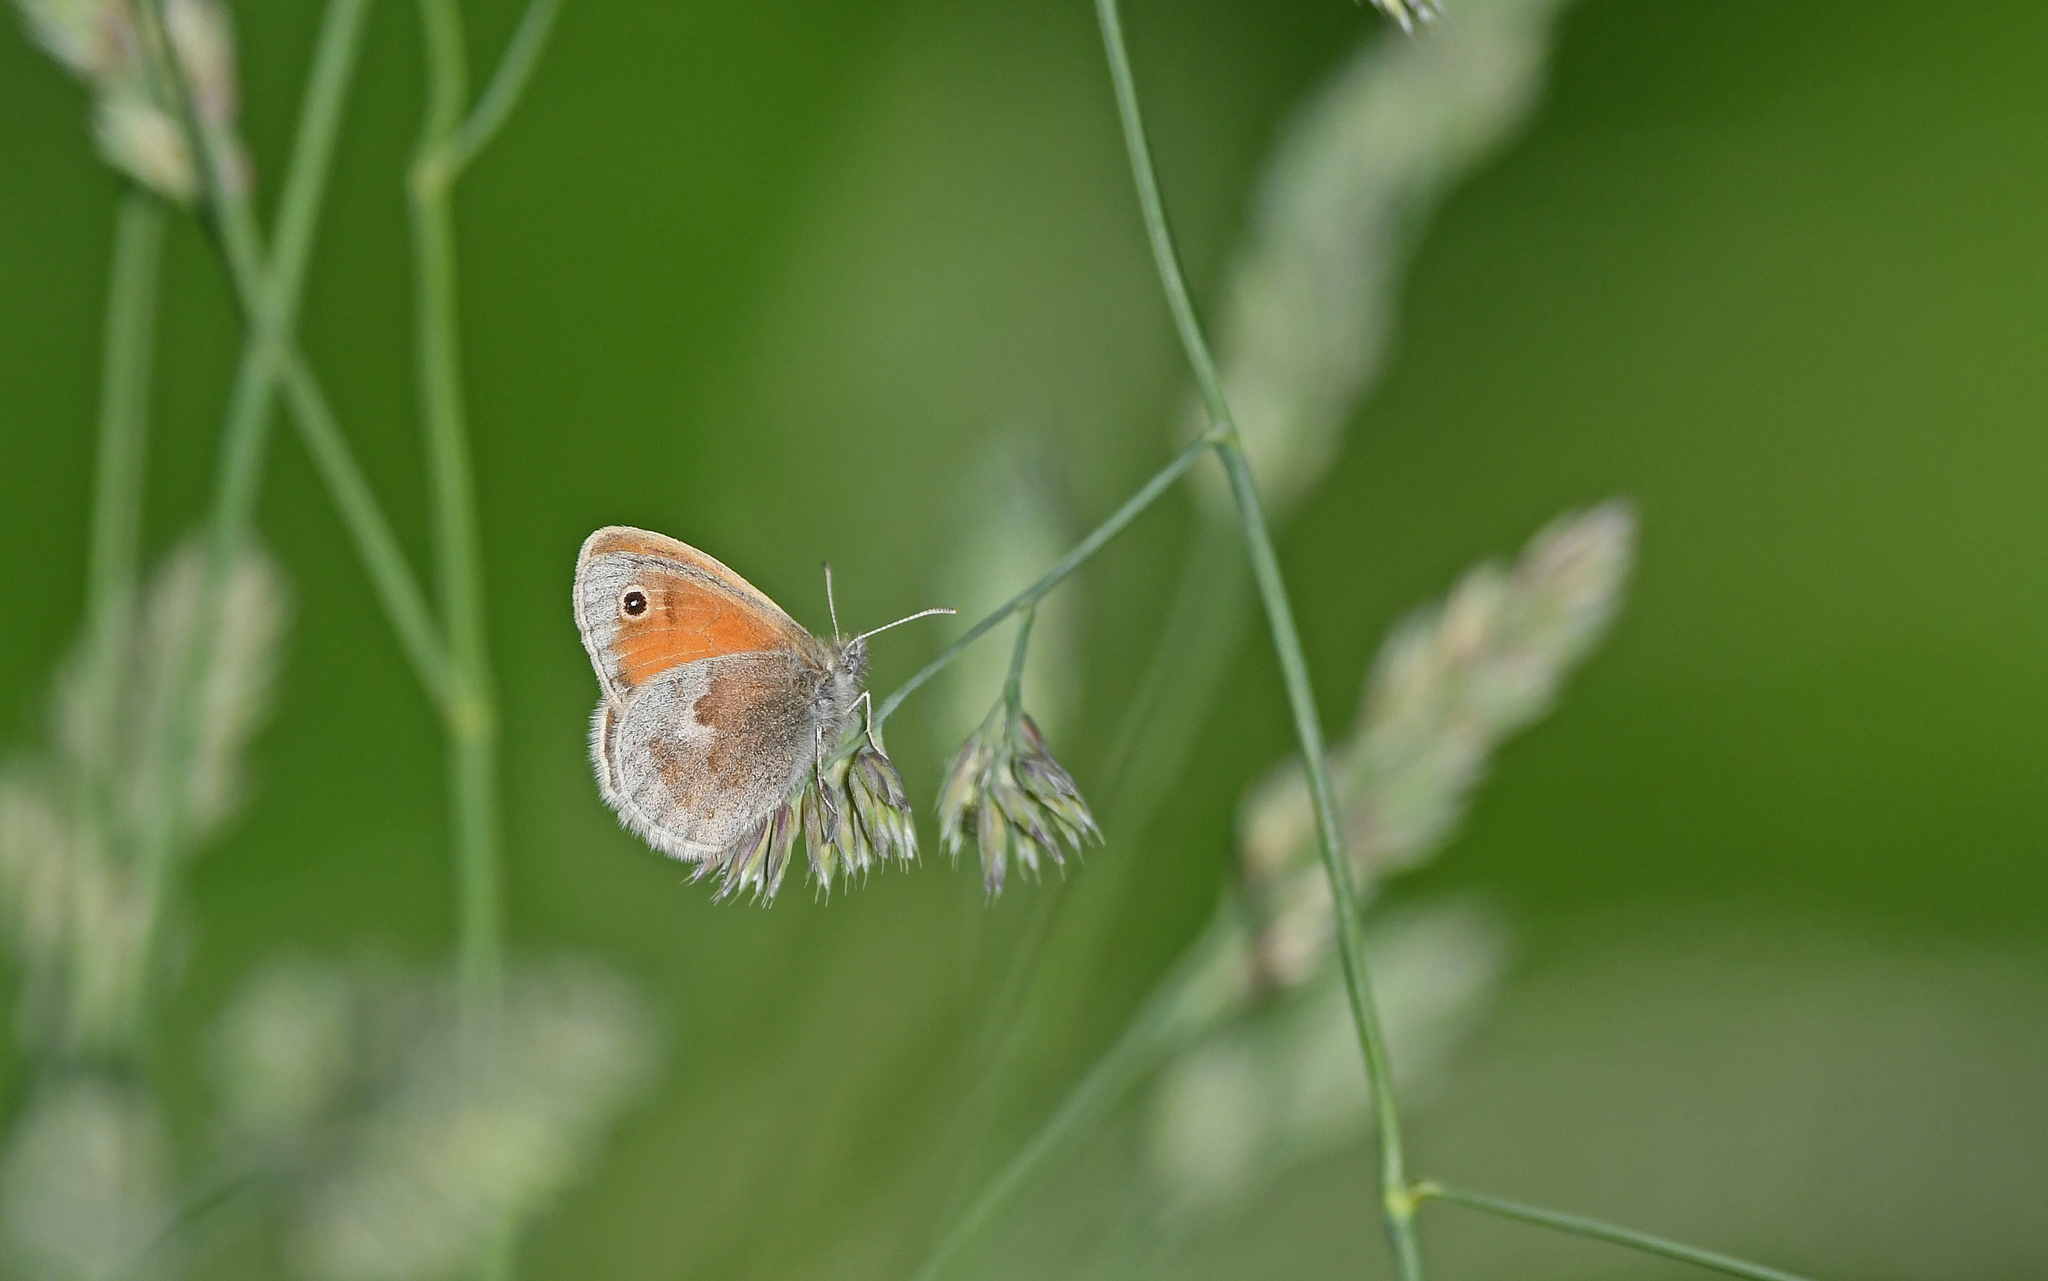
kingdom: Animalia
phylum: Arthropoda
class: Insecta
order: Lepidoptera
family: Nymphalidae
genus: Coenonympha
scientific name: Coenonympha pamphilus
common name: Small heath
